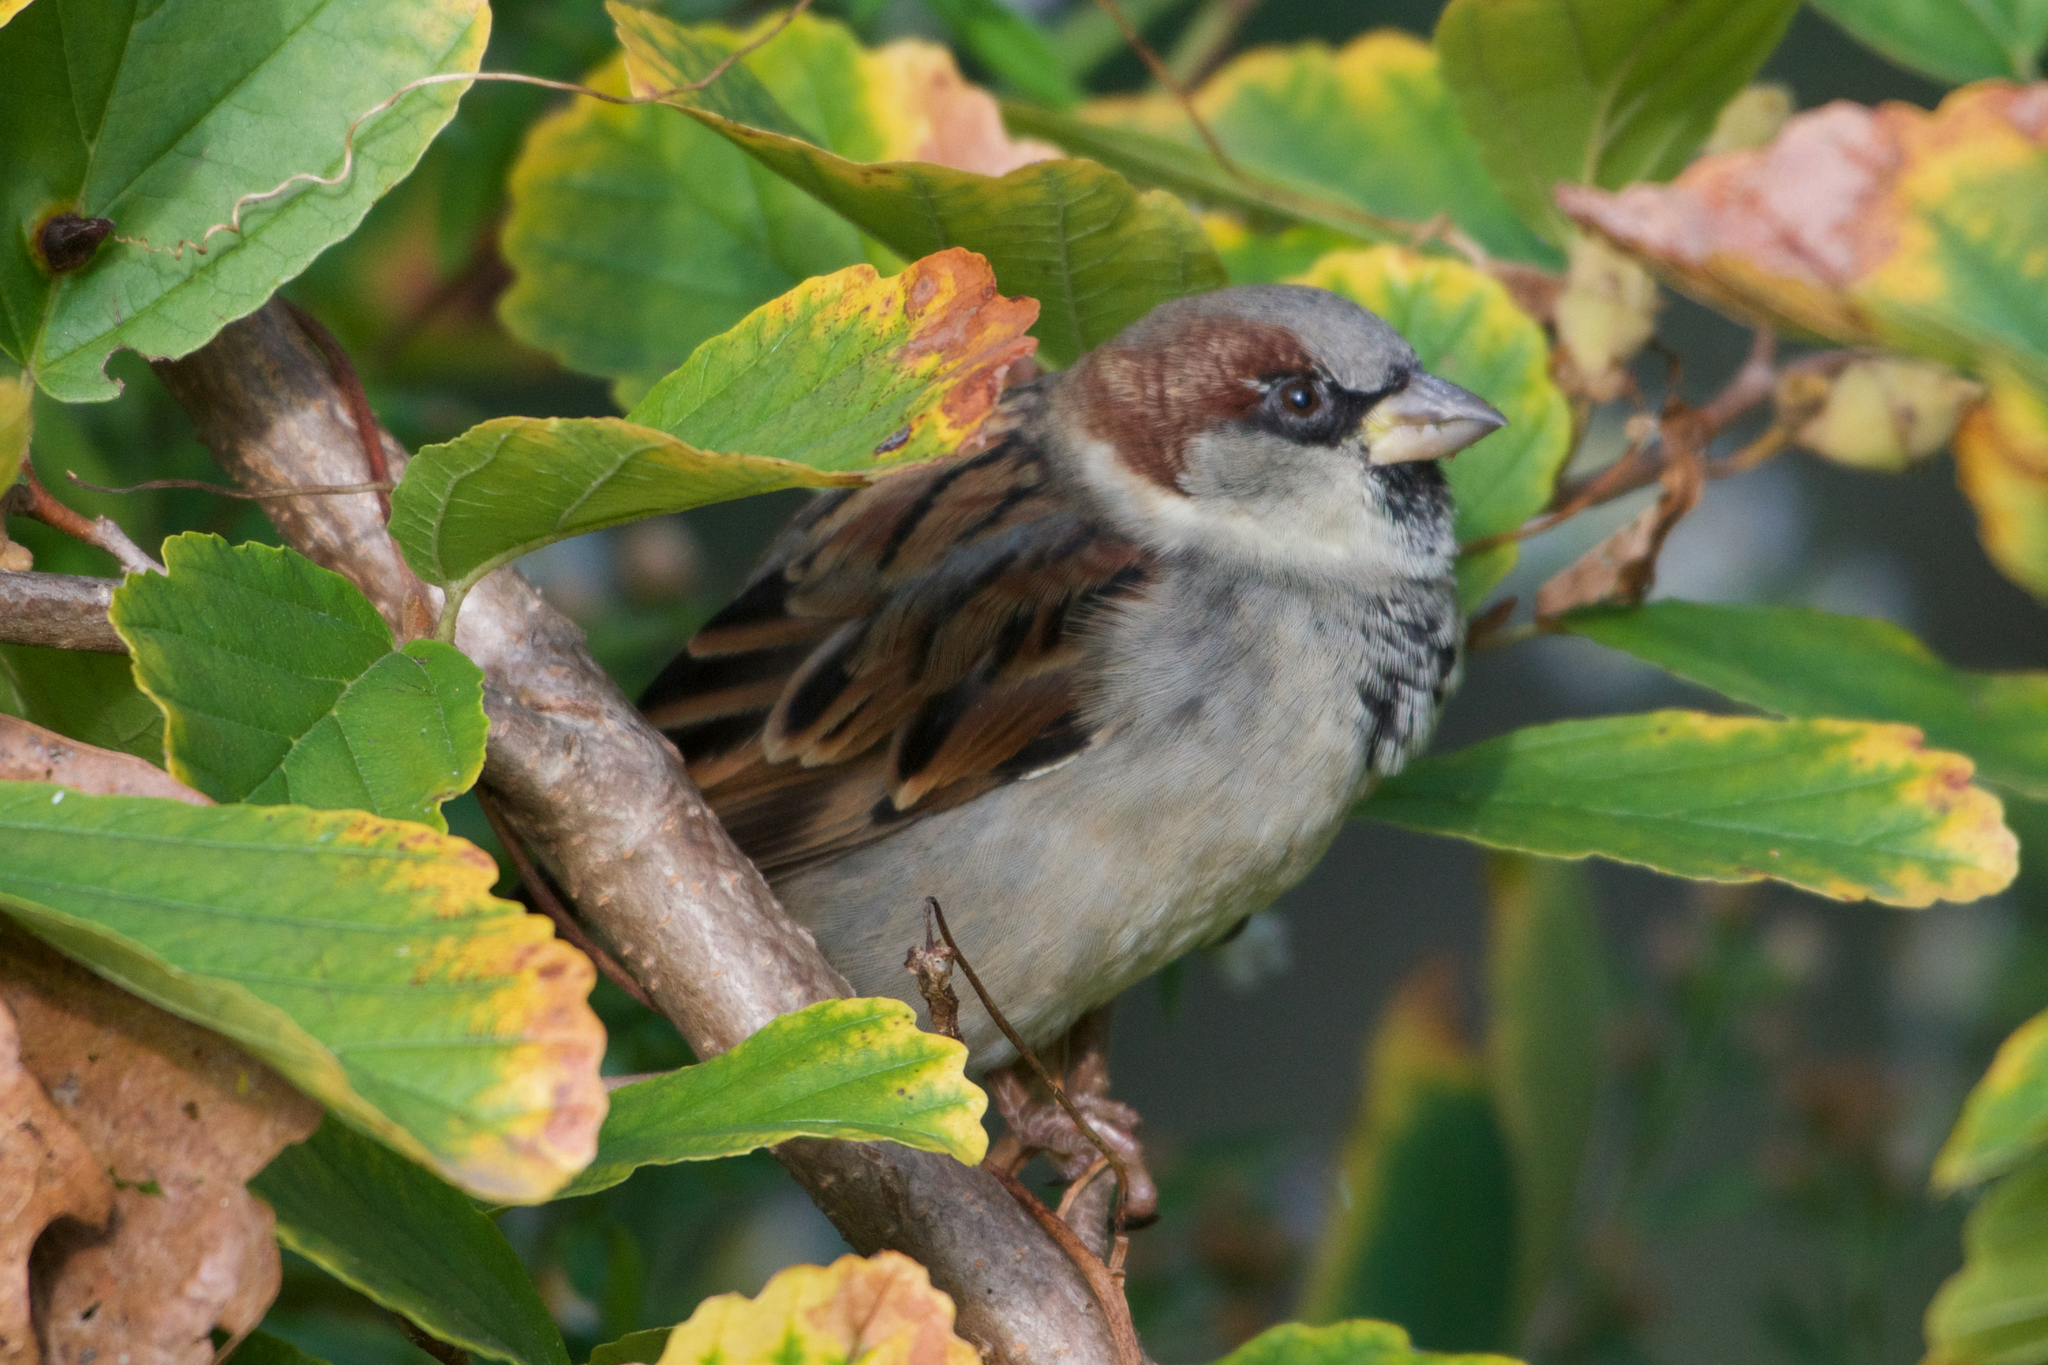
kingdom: Animalia
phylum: Chordata
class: Aves
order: Passeriformes
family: Passeridae
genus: Passer
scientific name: Passer domesticus
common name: House sparrow
